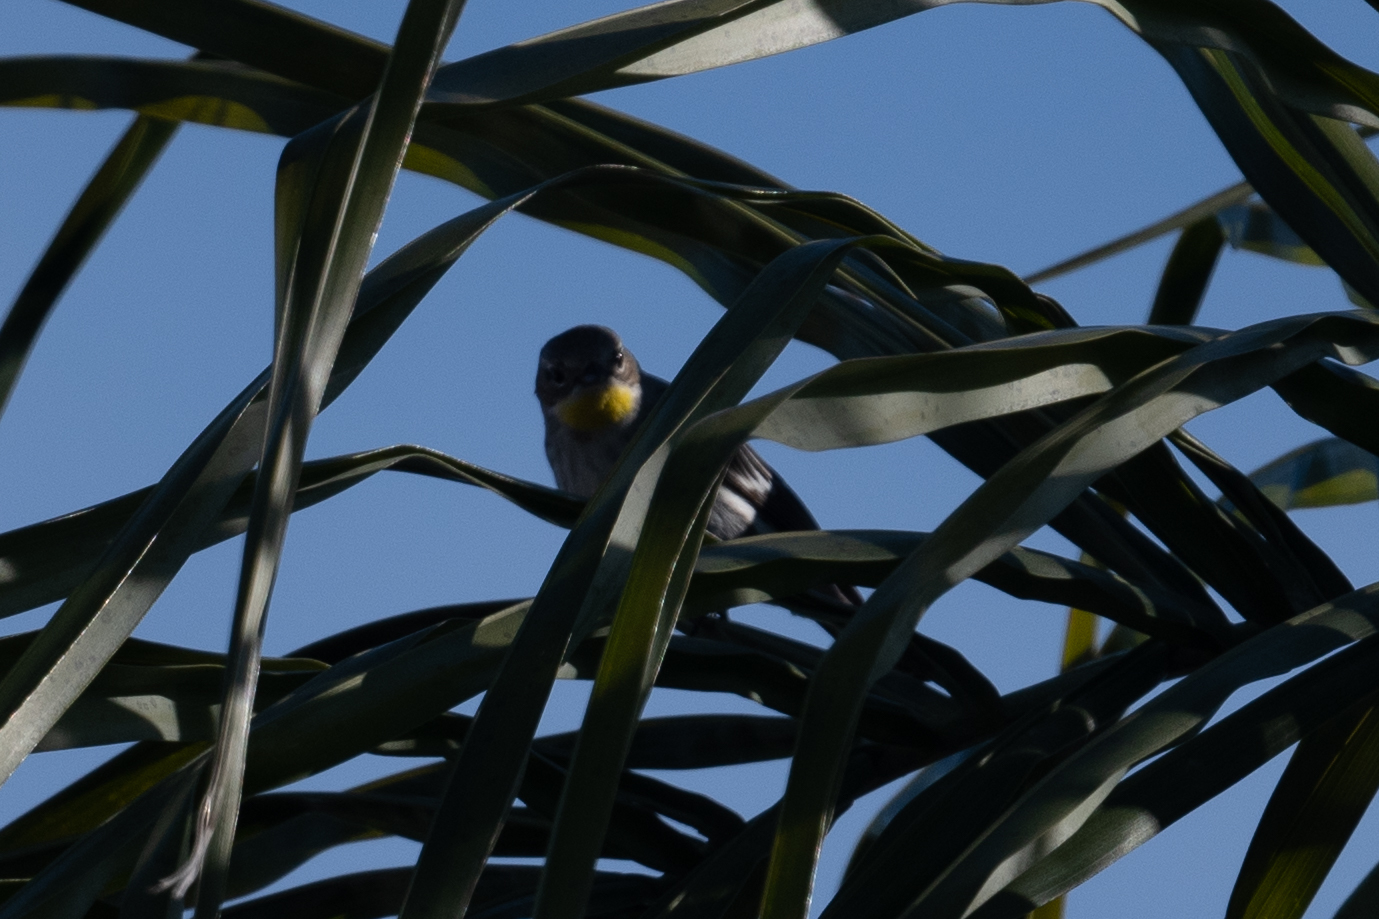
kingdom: Animalia
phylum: Chordata
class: Aves
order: Passeriformes
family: Parulidae
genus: Setophaga
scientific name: Setophaga coronata
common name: Myrtle warbler
